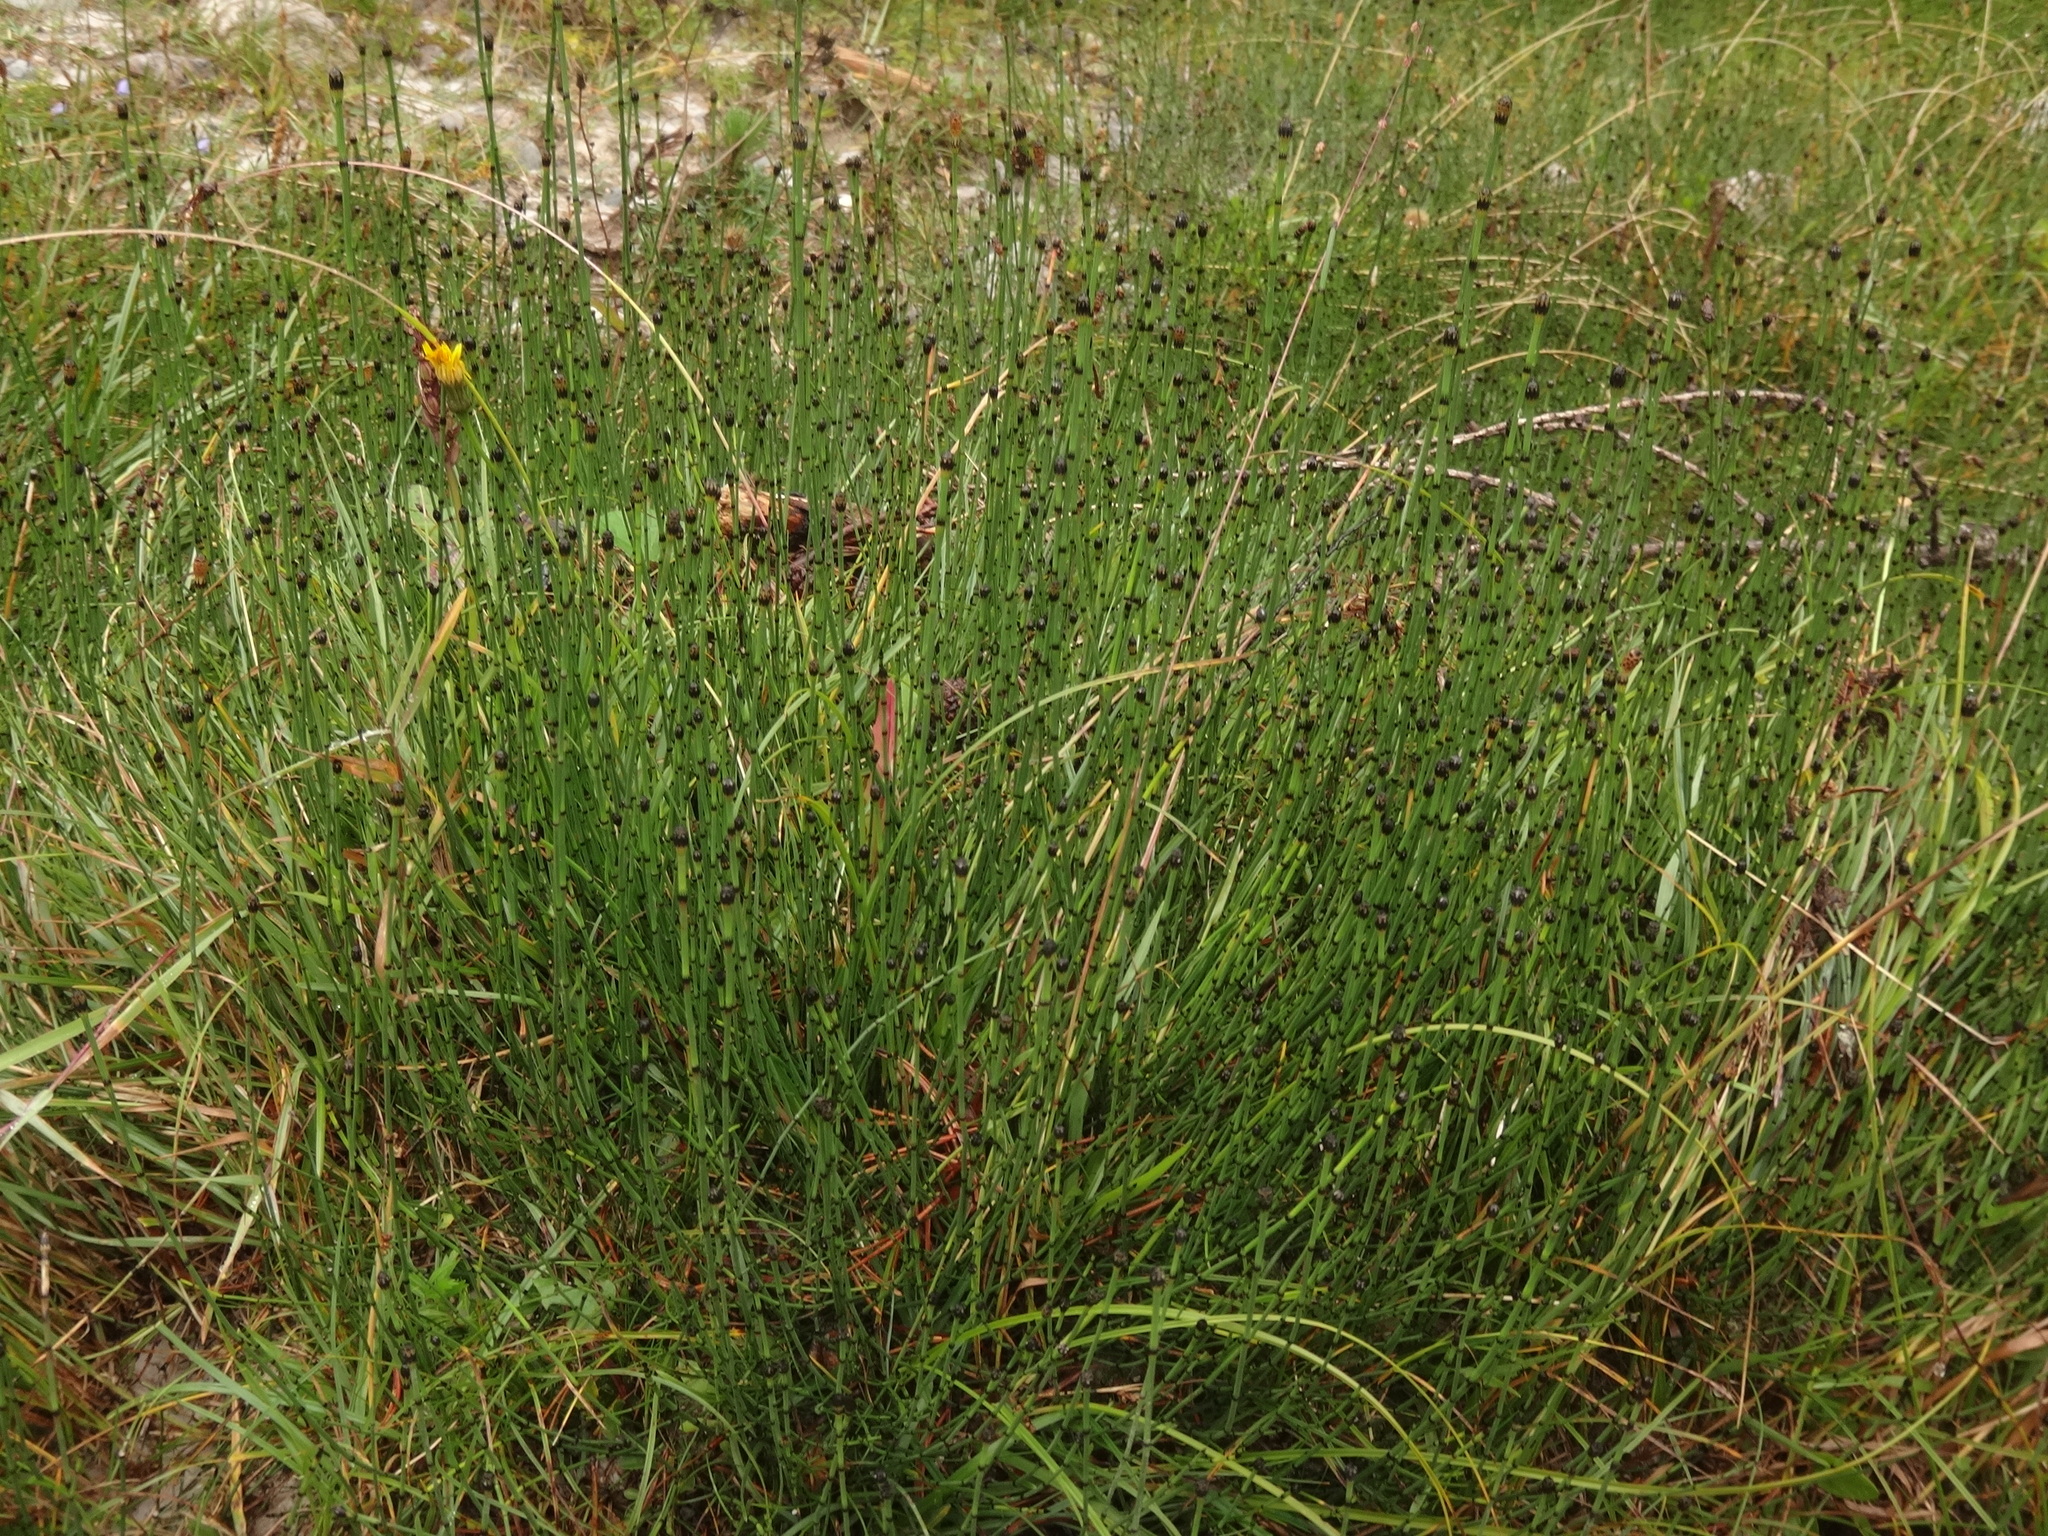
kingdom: Plantae
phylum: Tracheophyta
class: Polypodiopsida
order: Equisetales
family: Equisetaceae
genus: Equisetum
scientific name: Equisetum variegatum
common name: Variegated horsetail
